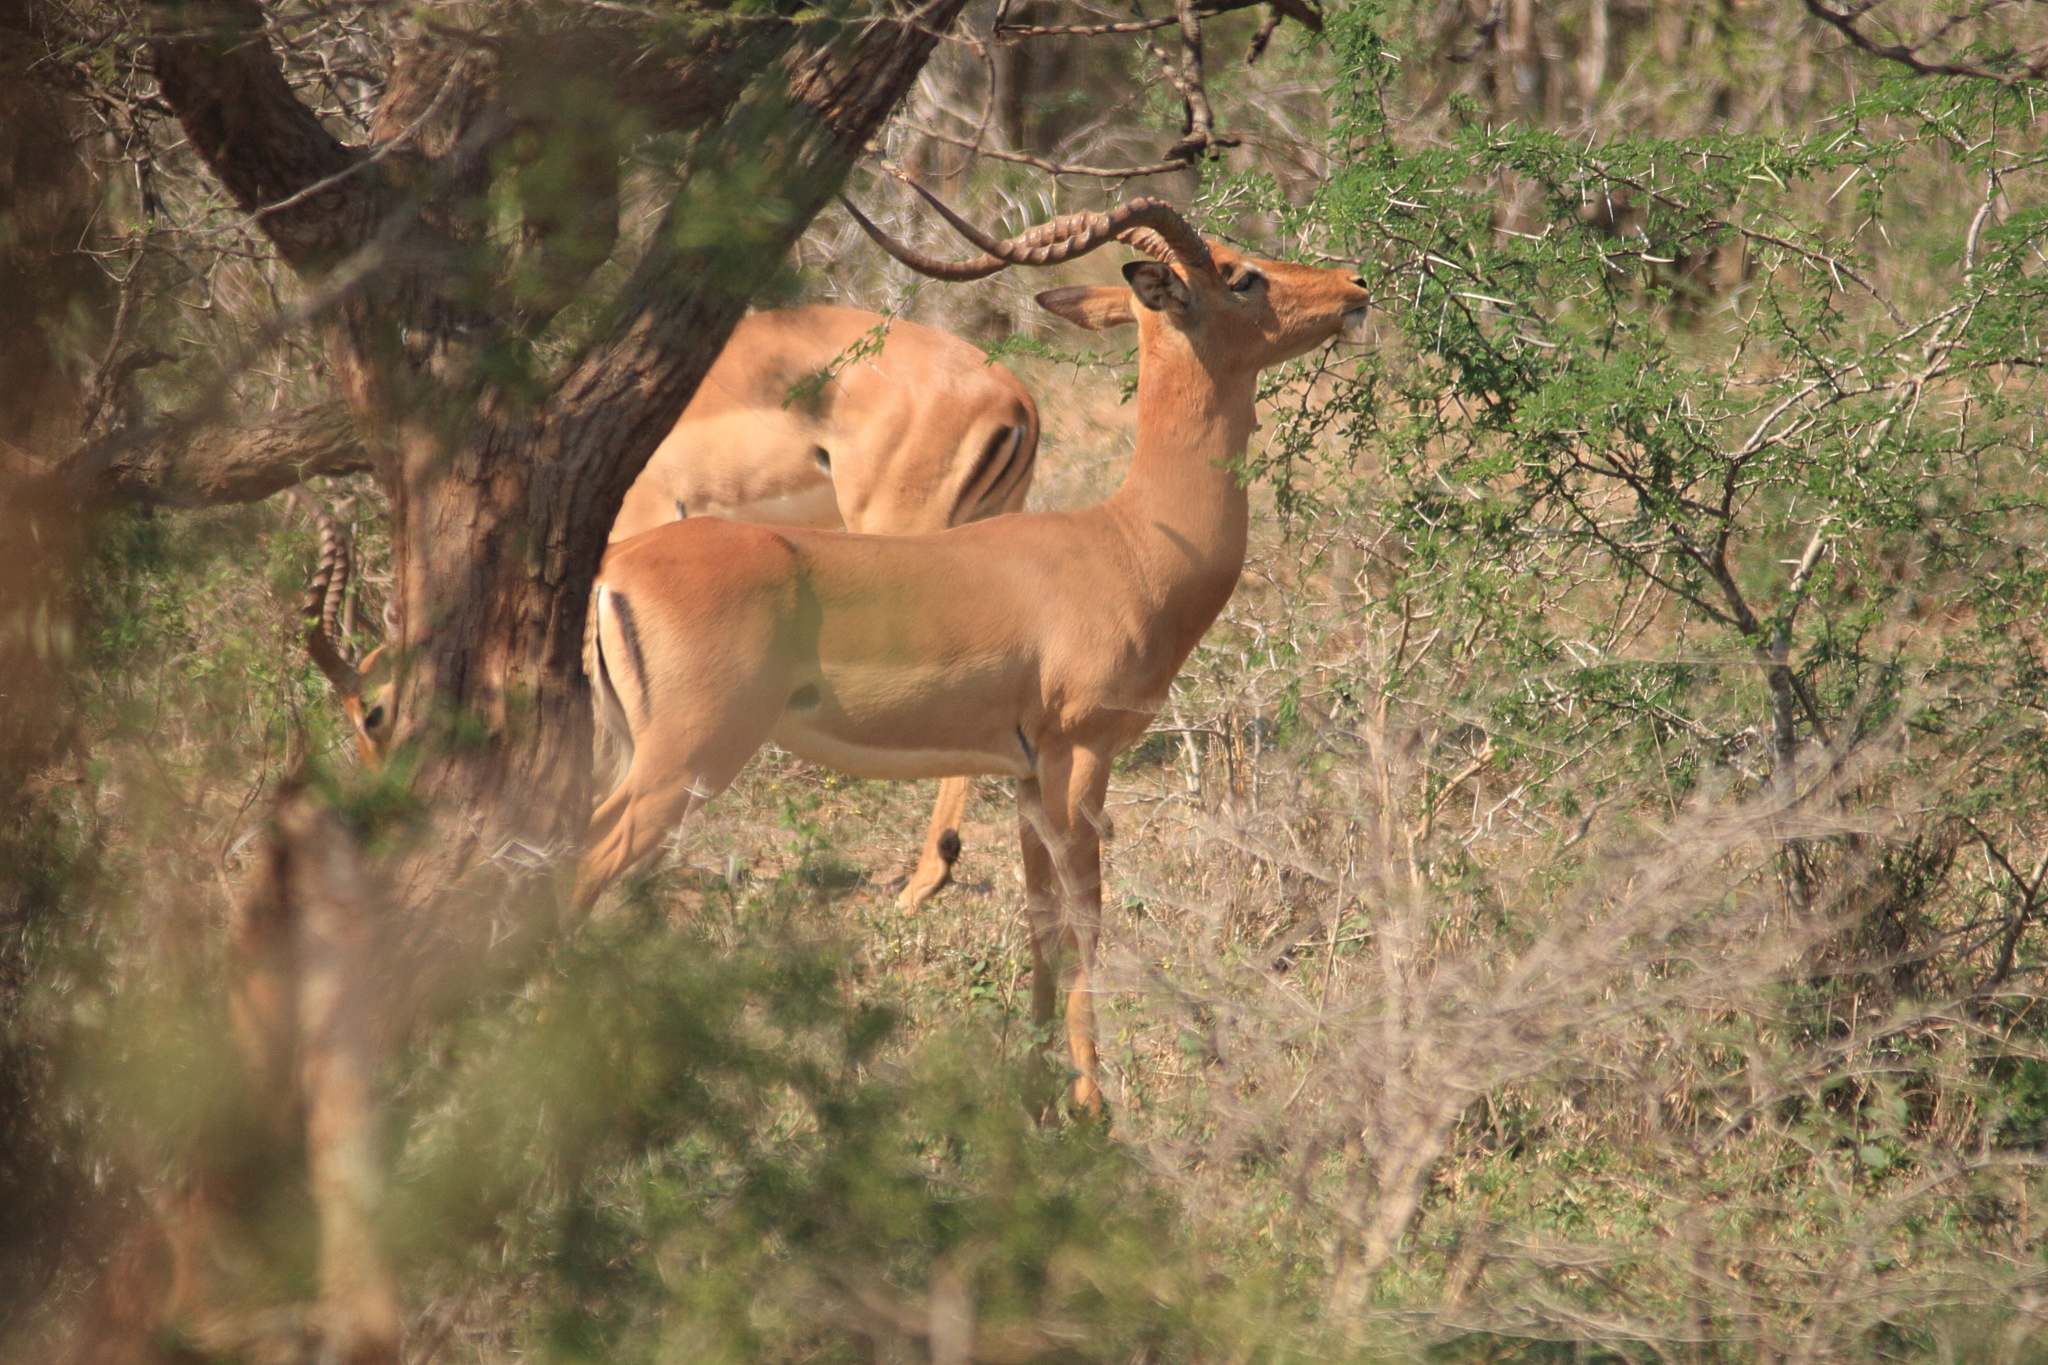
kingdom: Animalia
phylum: Chordata
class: Mammalia
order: Artiodactyla
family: Bovidae
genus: Aepyceros
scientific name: Aepyceros melampus
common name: Impala
